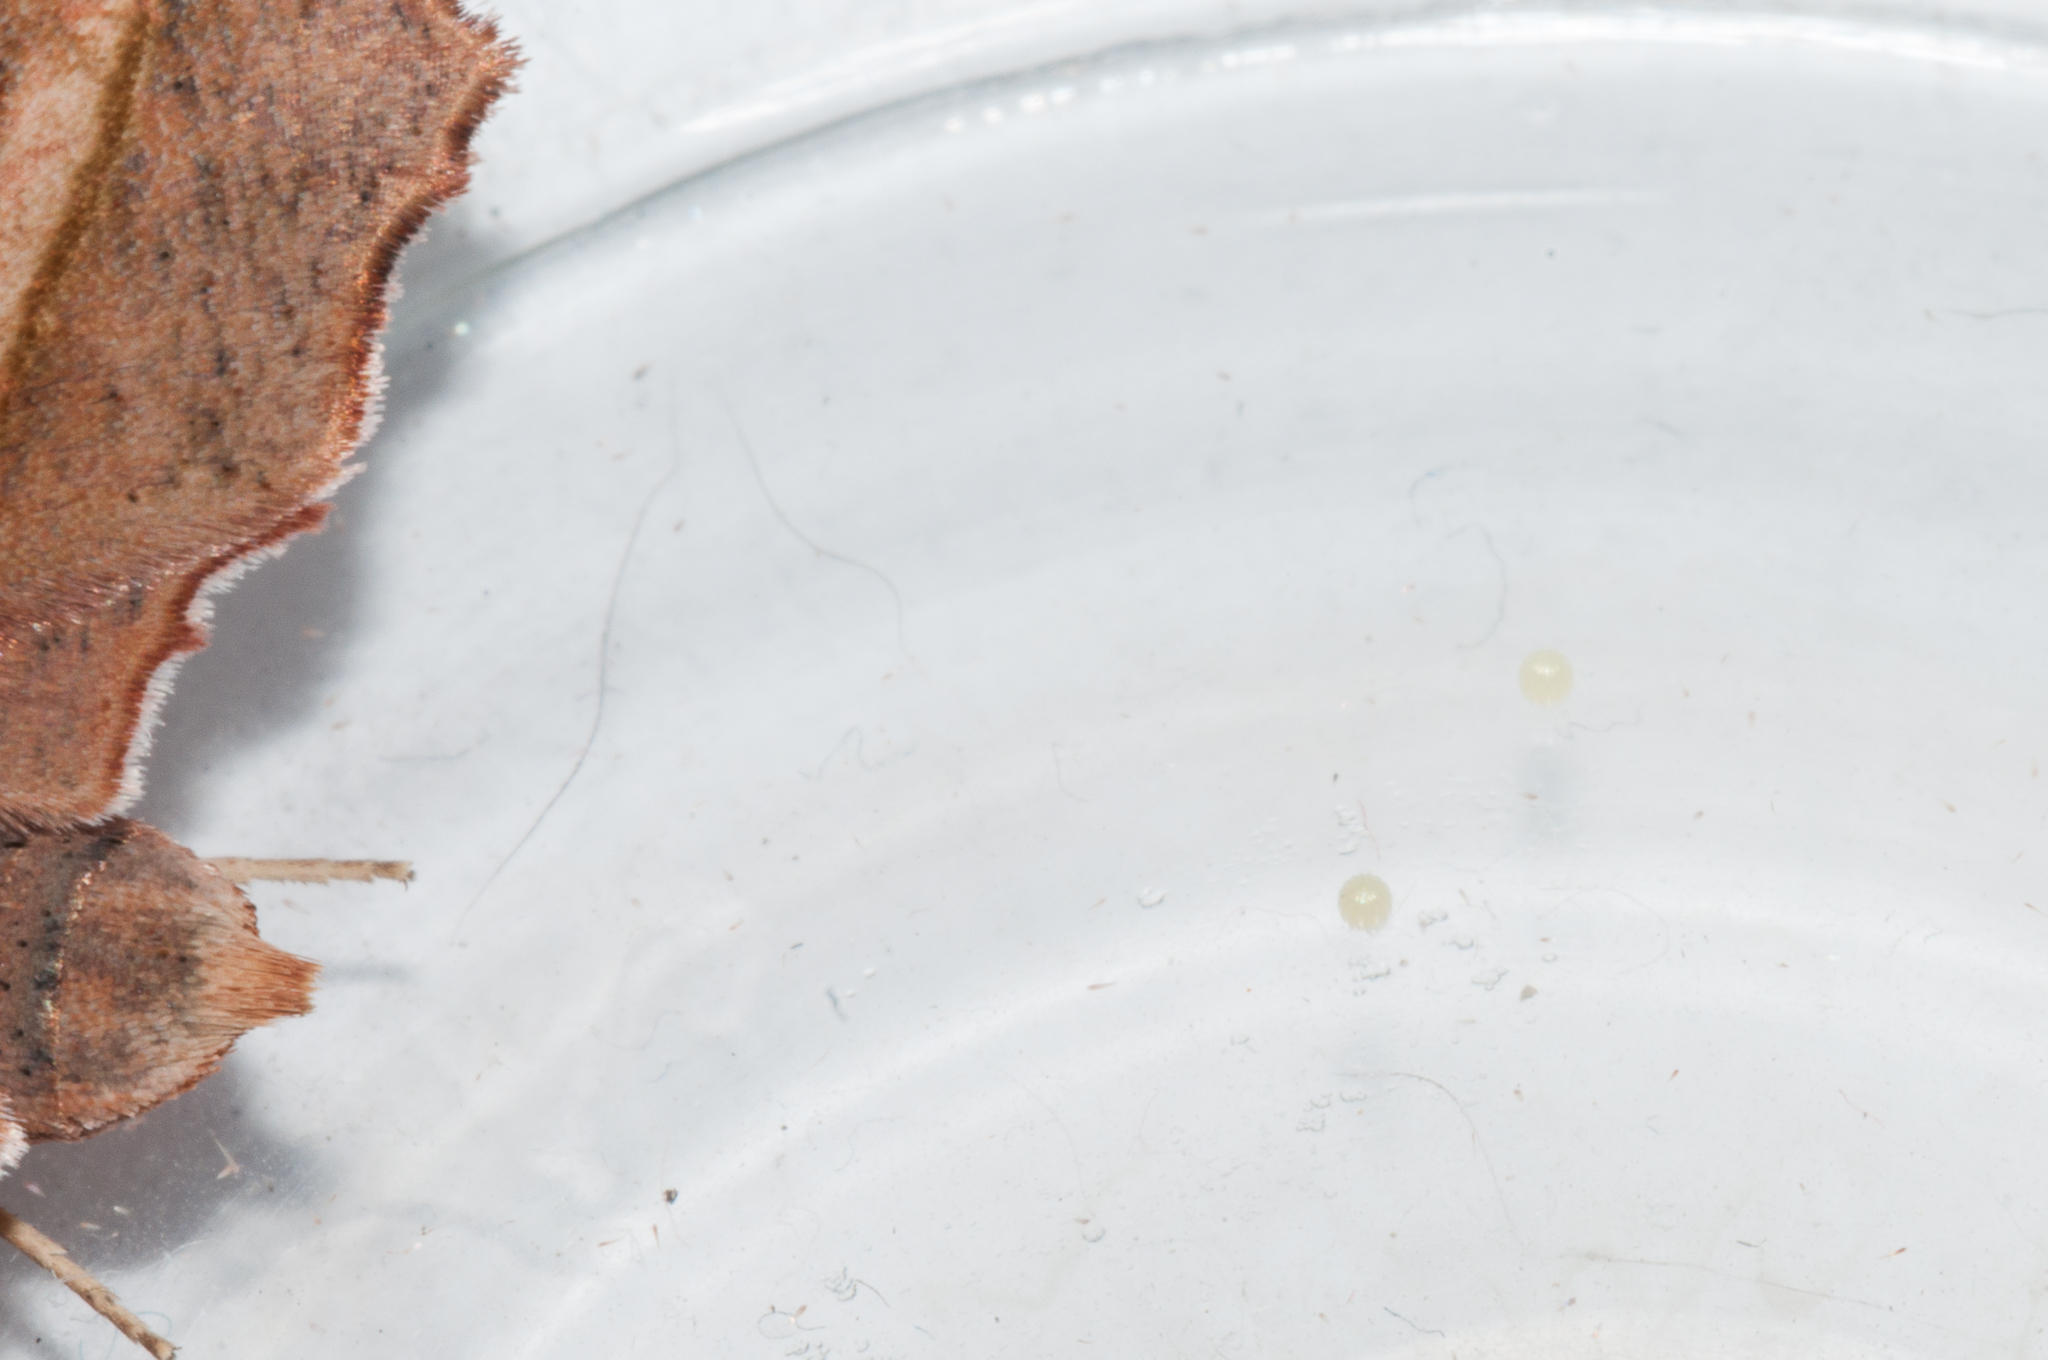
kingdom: Animalia
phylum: Arthropoda
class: Insecta
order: Lepidoptera
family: Geometridae
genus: Axiodes
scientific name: Axiodes agrypna
